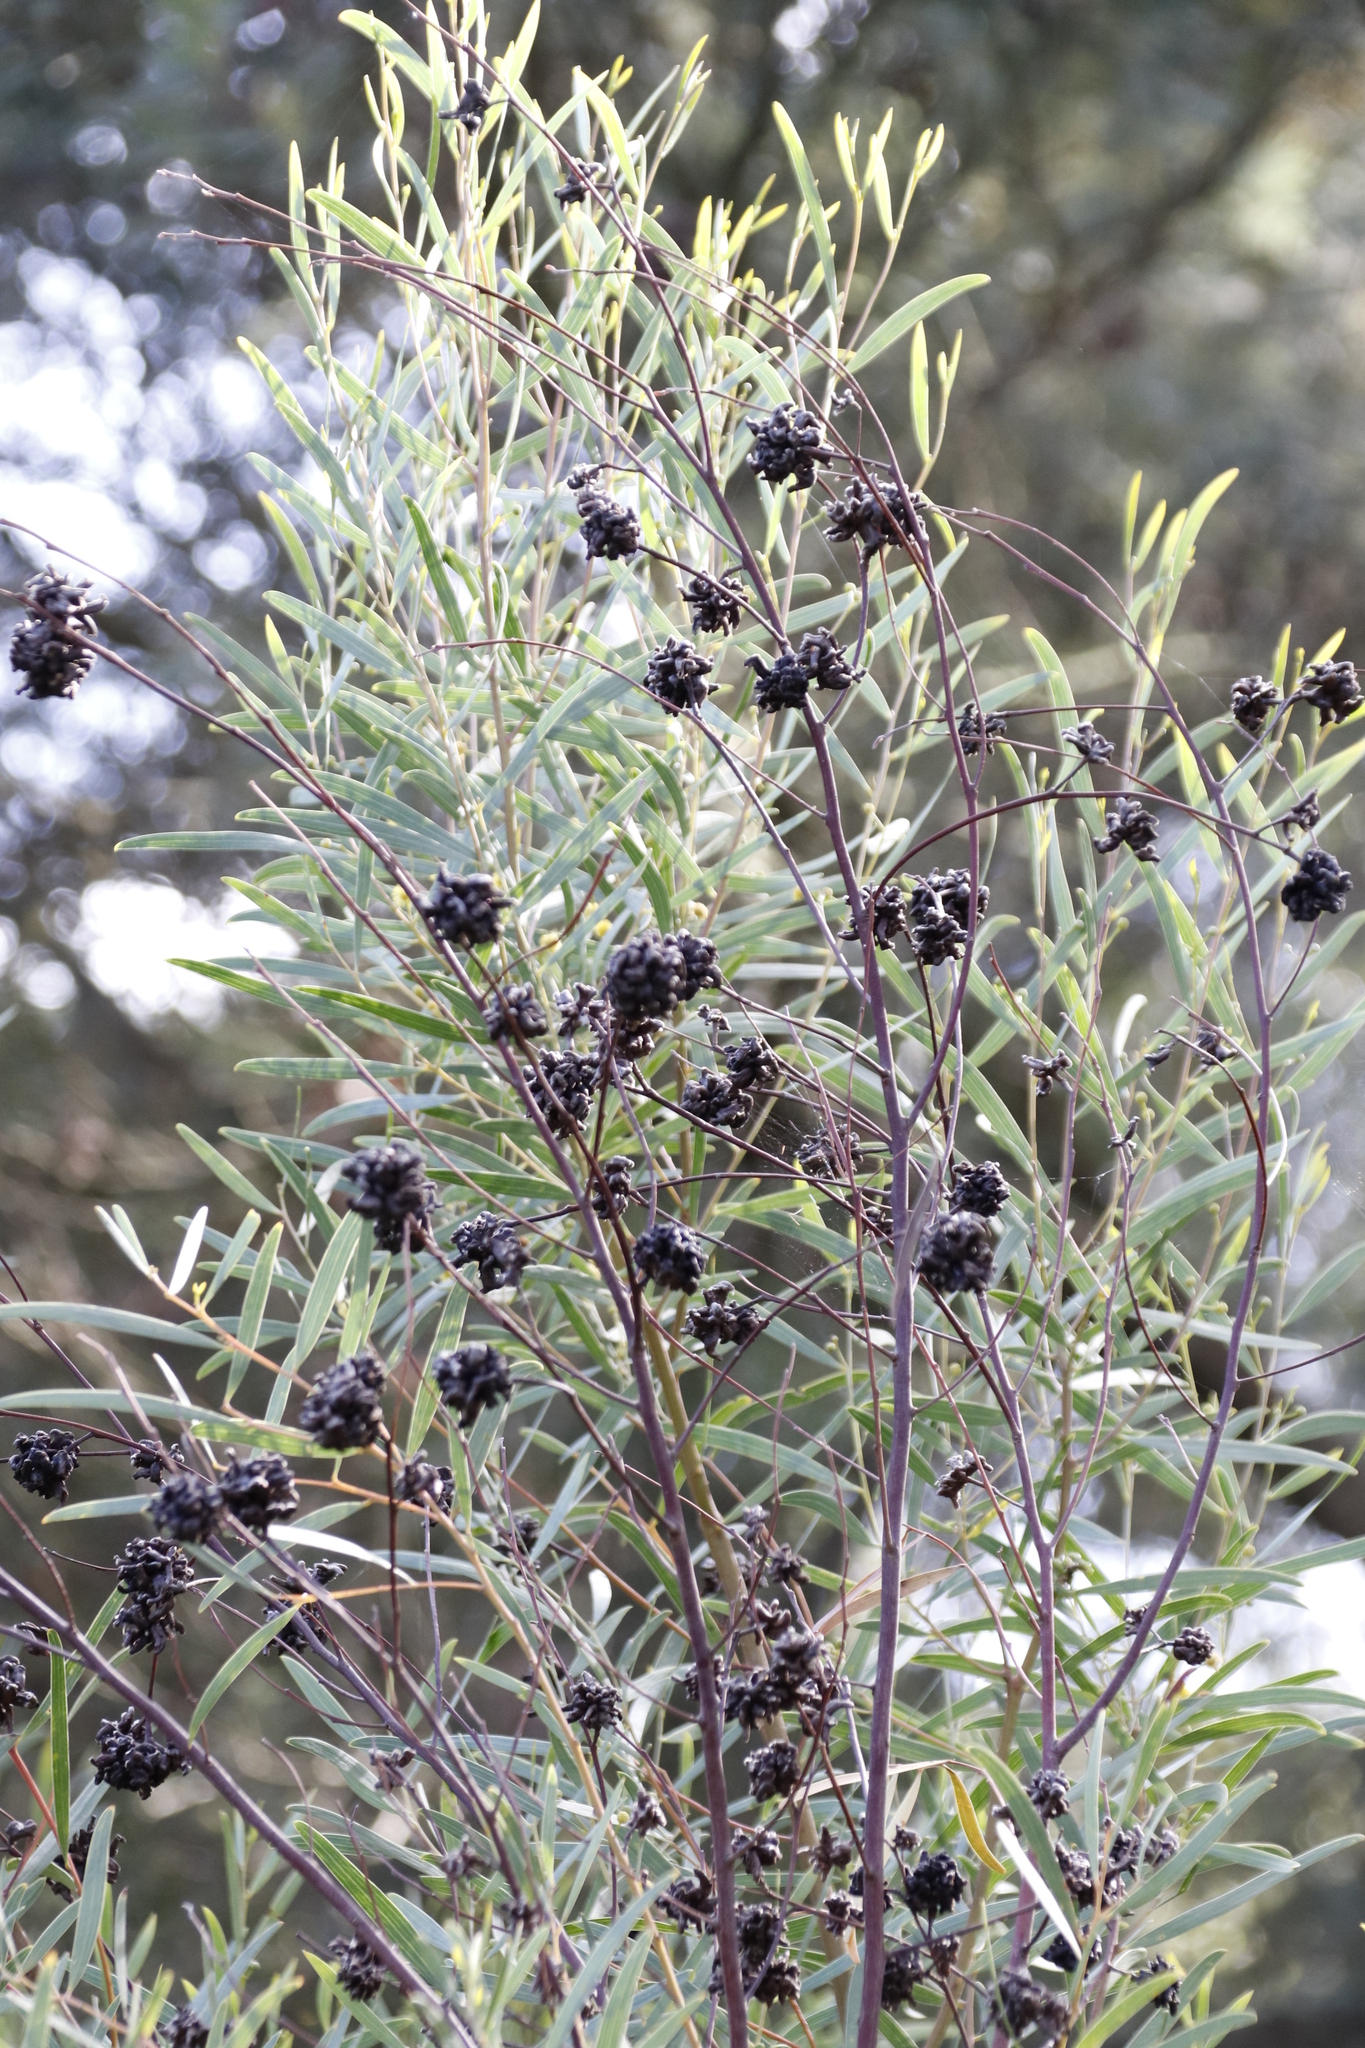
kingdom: Animalia
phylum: Arthropoda
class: Insecta
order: Diptera
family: Cecidomyiidae
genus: Dasineura
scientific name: Dasineura dielsi
